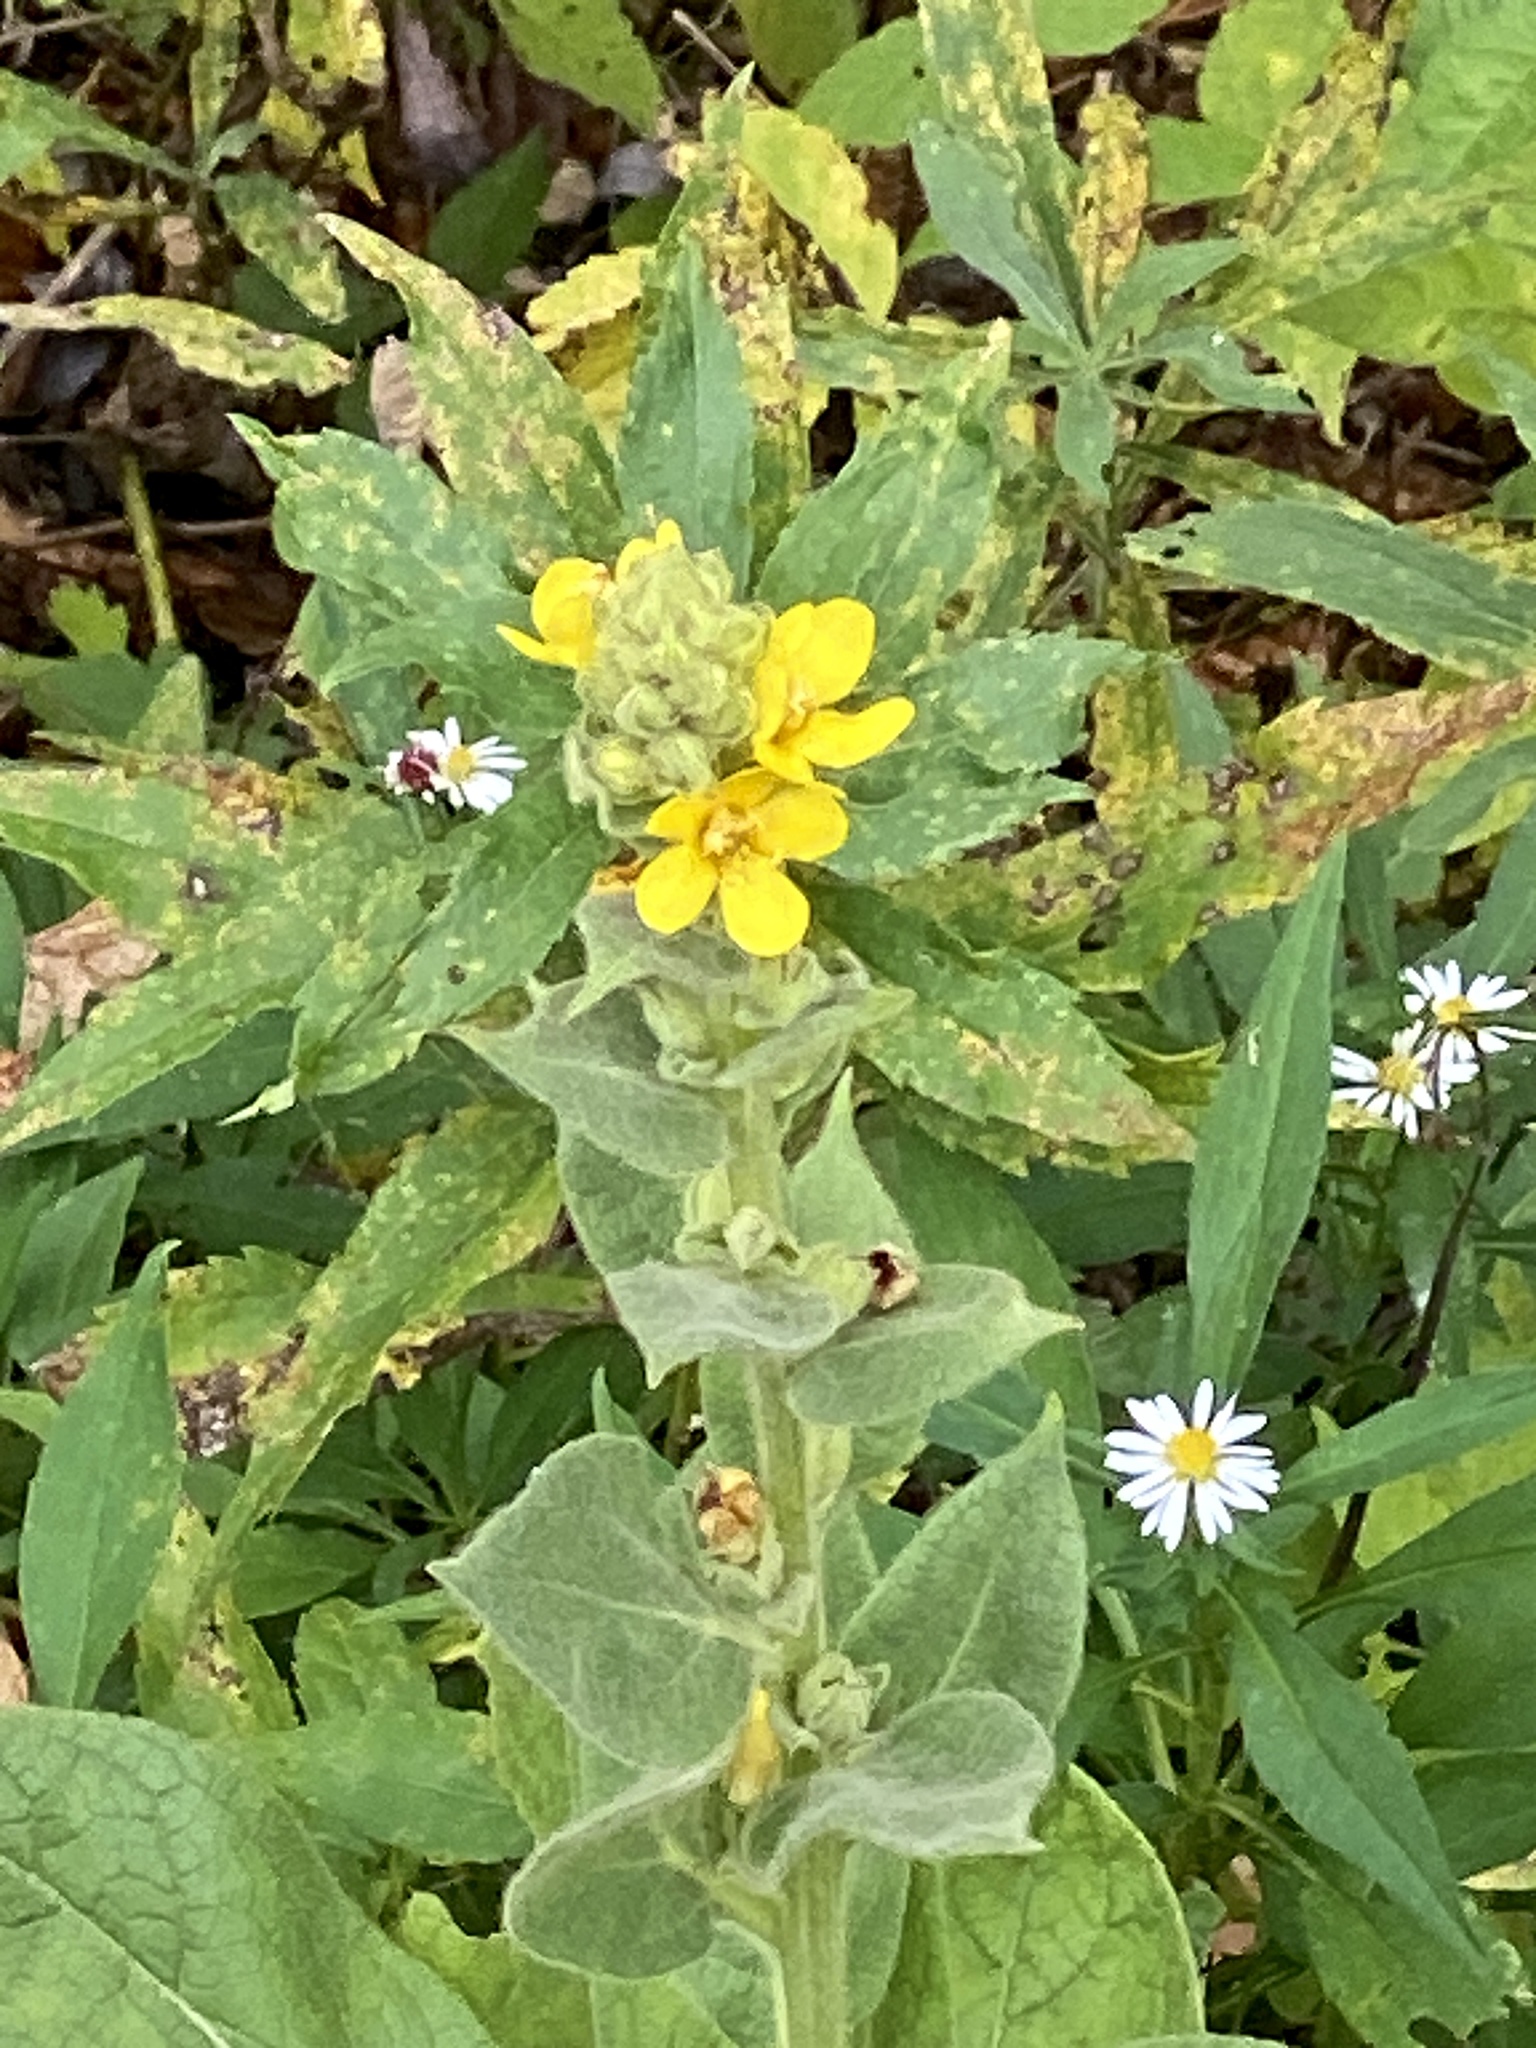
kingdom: Plantae
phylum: Tracheophyta
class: Magnoliopsida
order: Lamiales
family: Scrophulariaceae
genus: Verbascum
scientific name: Verbascum thapsus
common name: Common mullein
